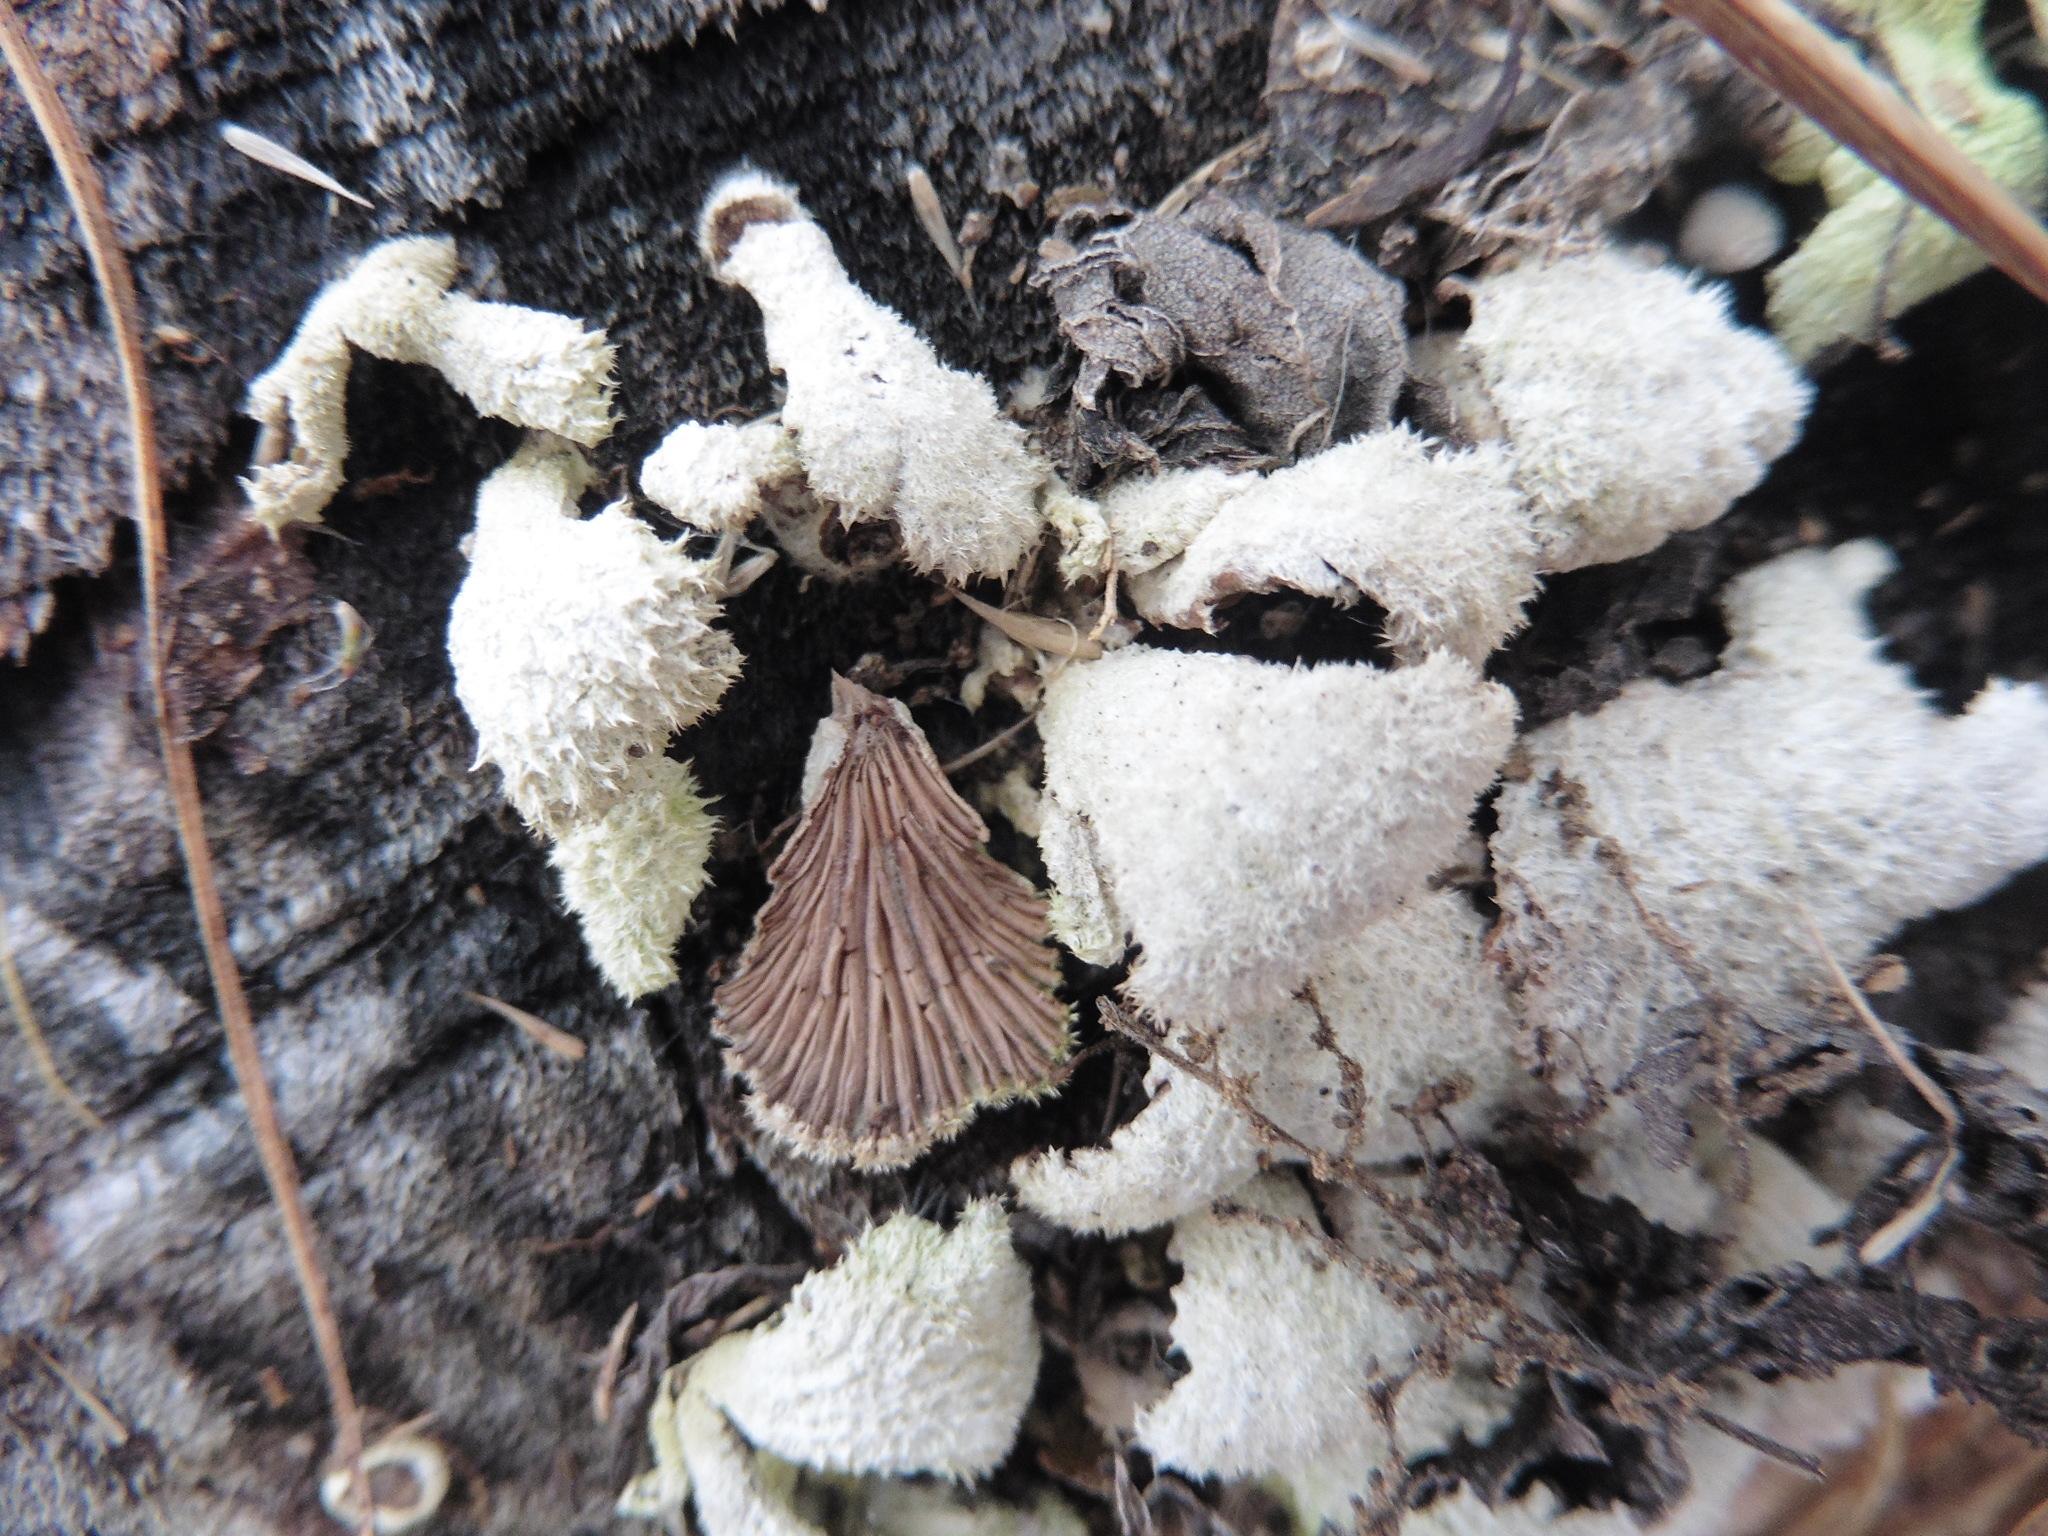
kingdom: Fungi
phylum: Basidiomycota
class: Agaricomycetes
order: Agaricales
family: Schizophyllaceae
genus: Schizophyllum
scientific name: Schizophyllum commune
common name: Common porecrust
